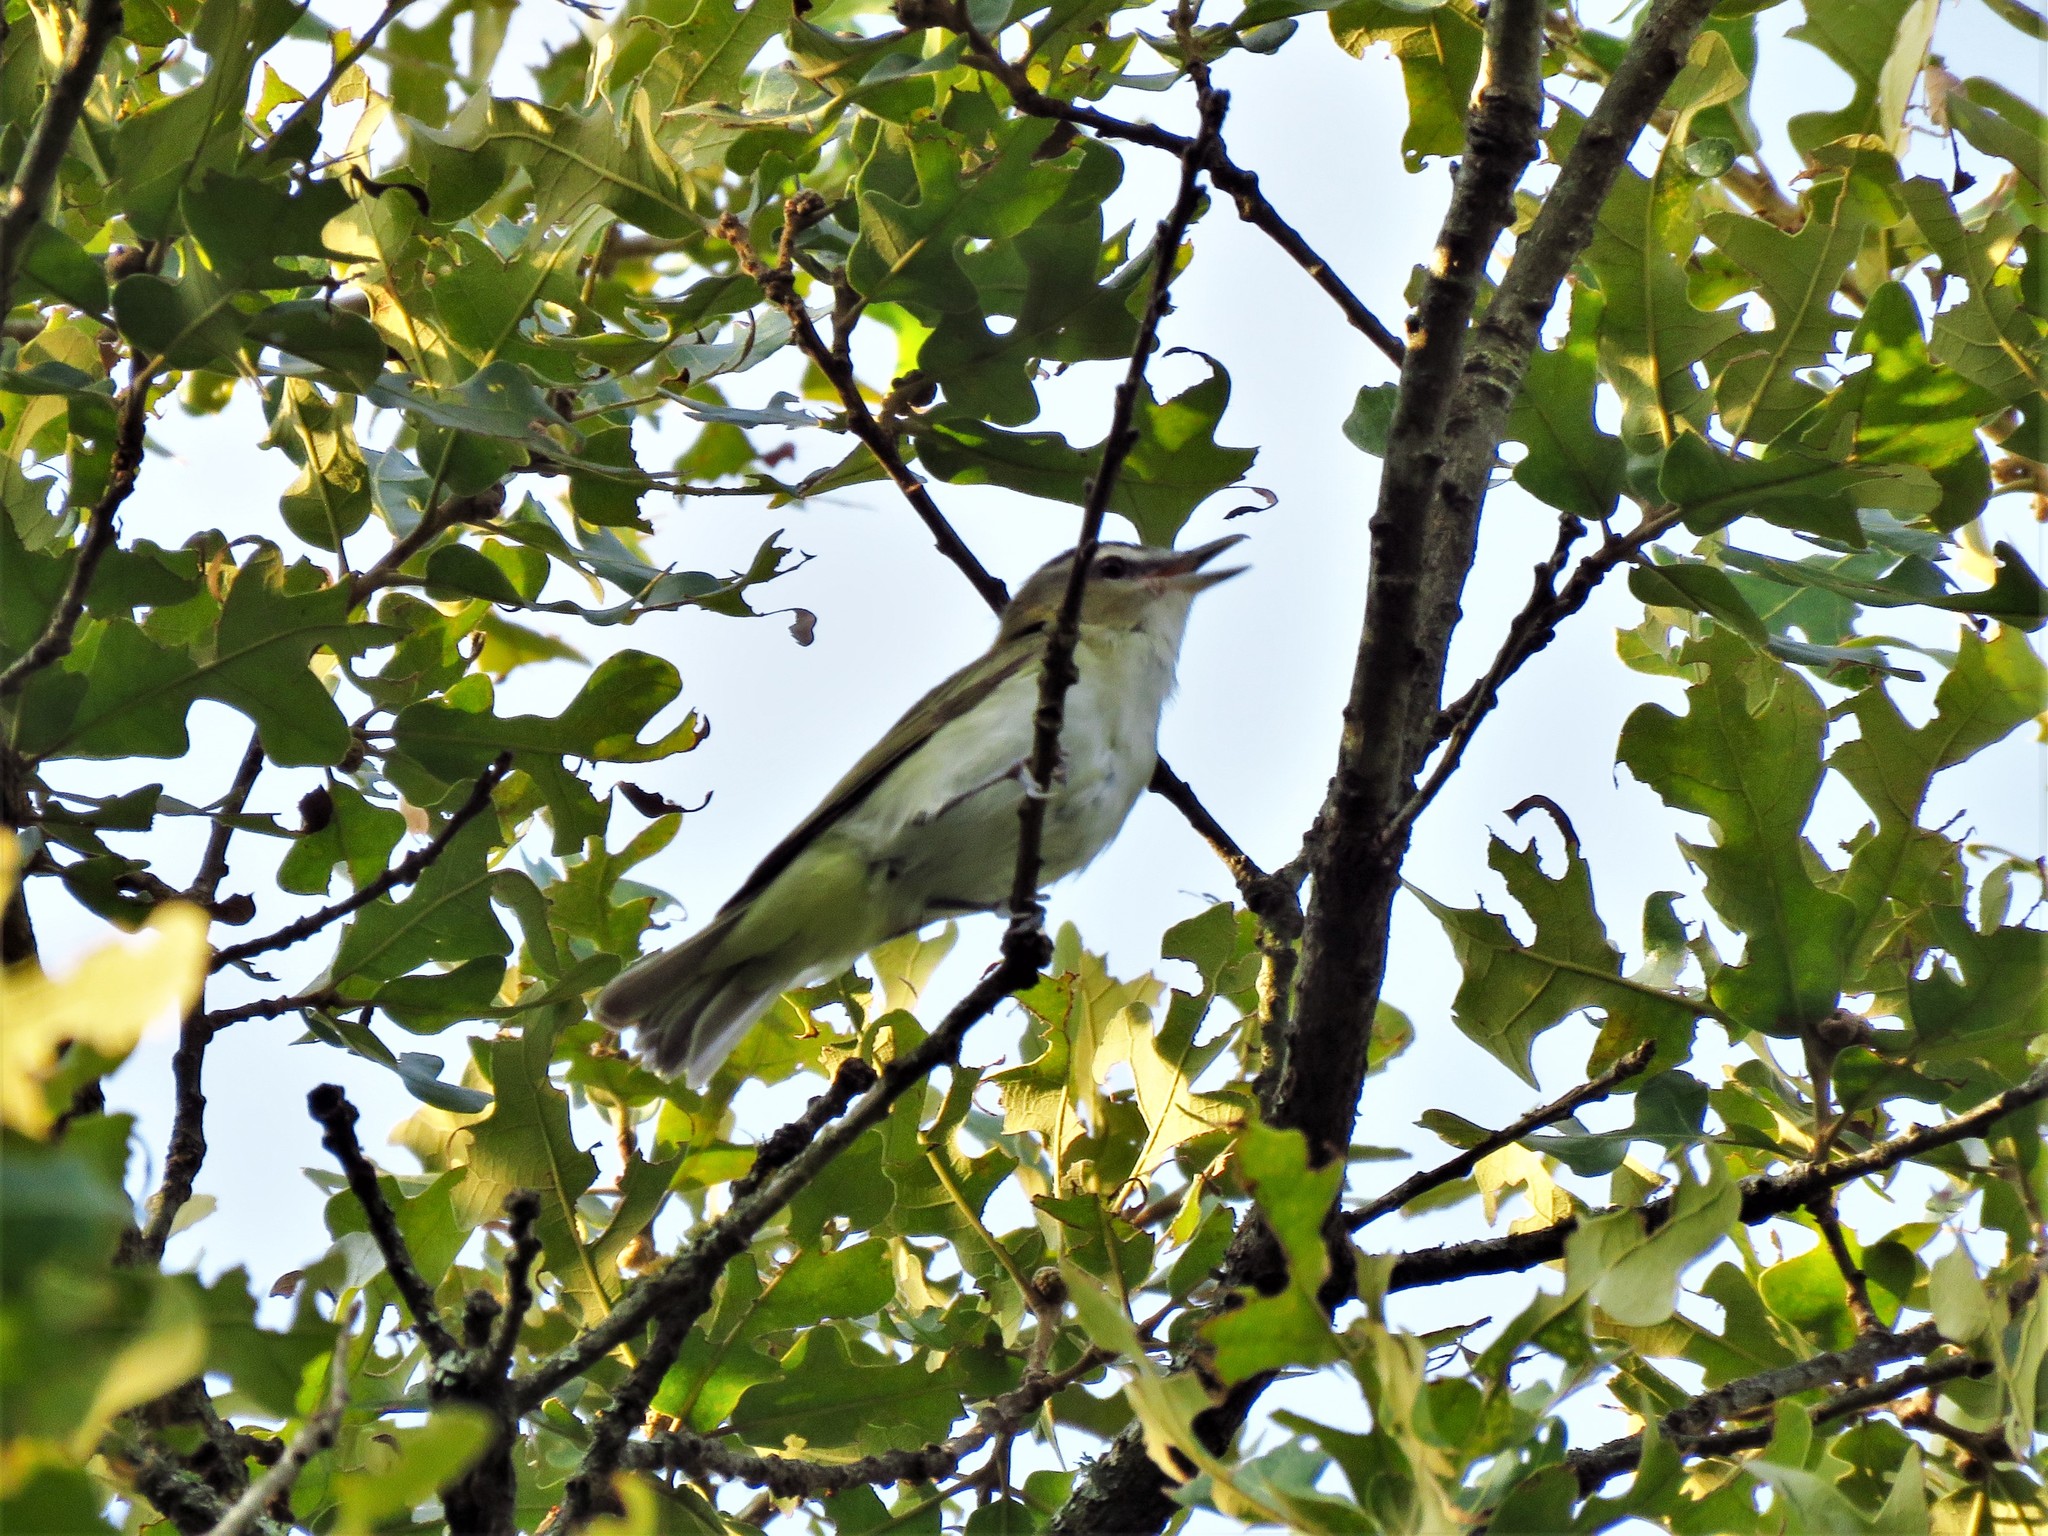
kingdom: Animalia
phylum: Chordata
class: Aves
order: Passeriformes
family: Vireonidae
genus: Vireo
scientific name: Vireo olivaceus
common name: Red-eyed vireo
